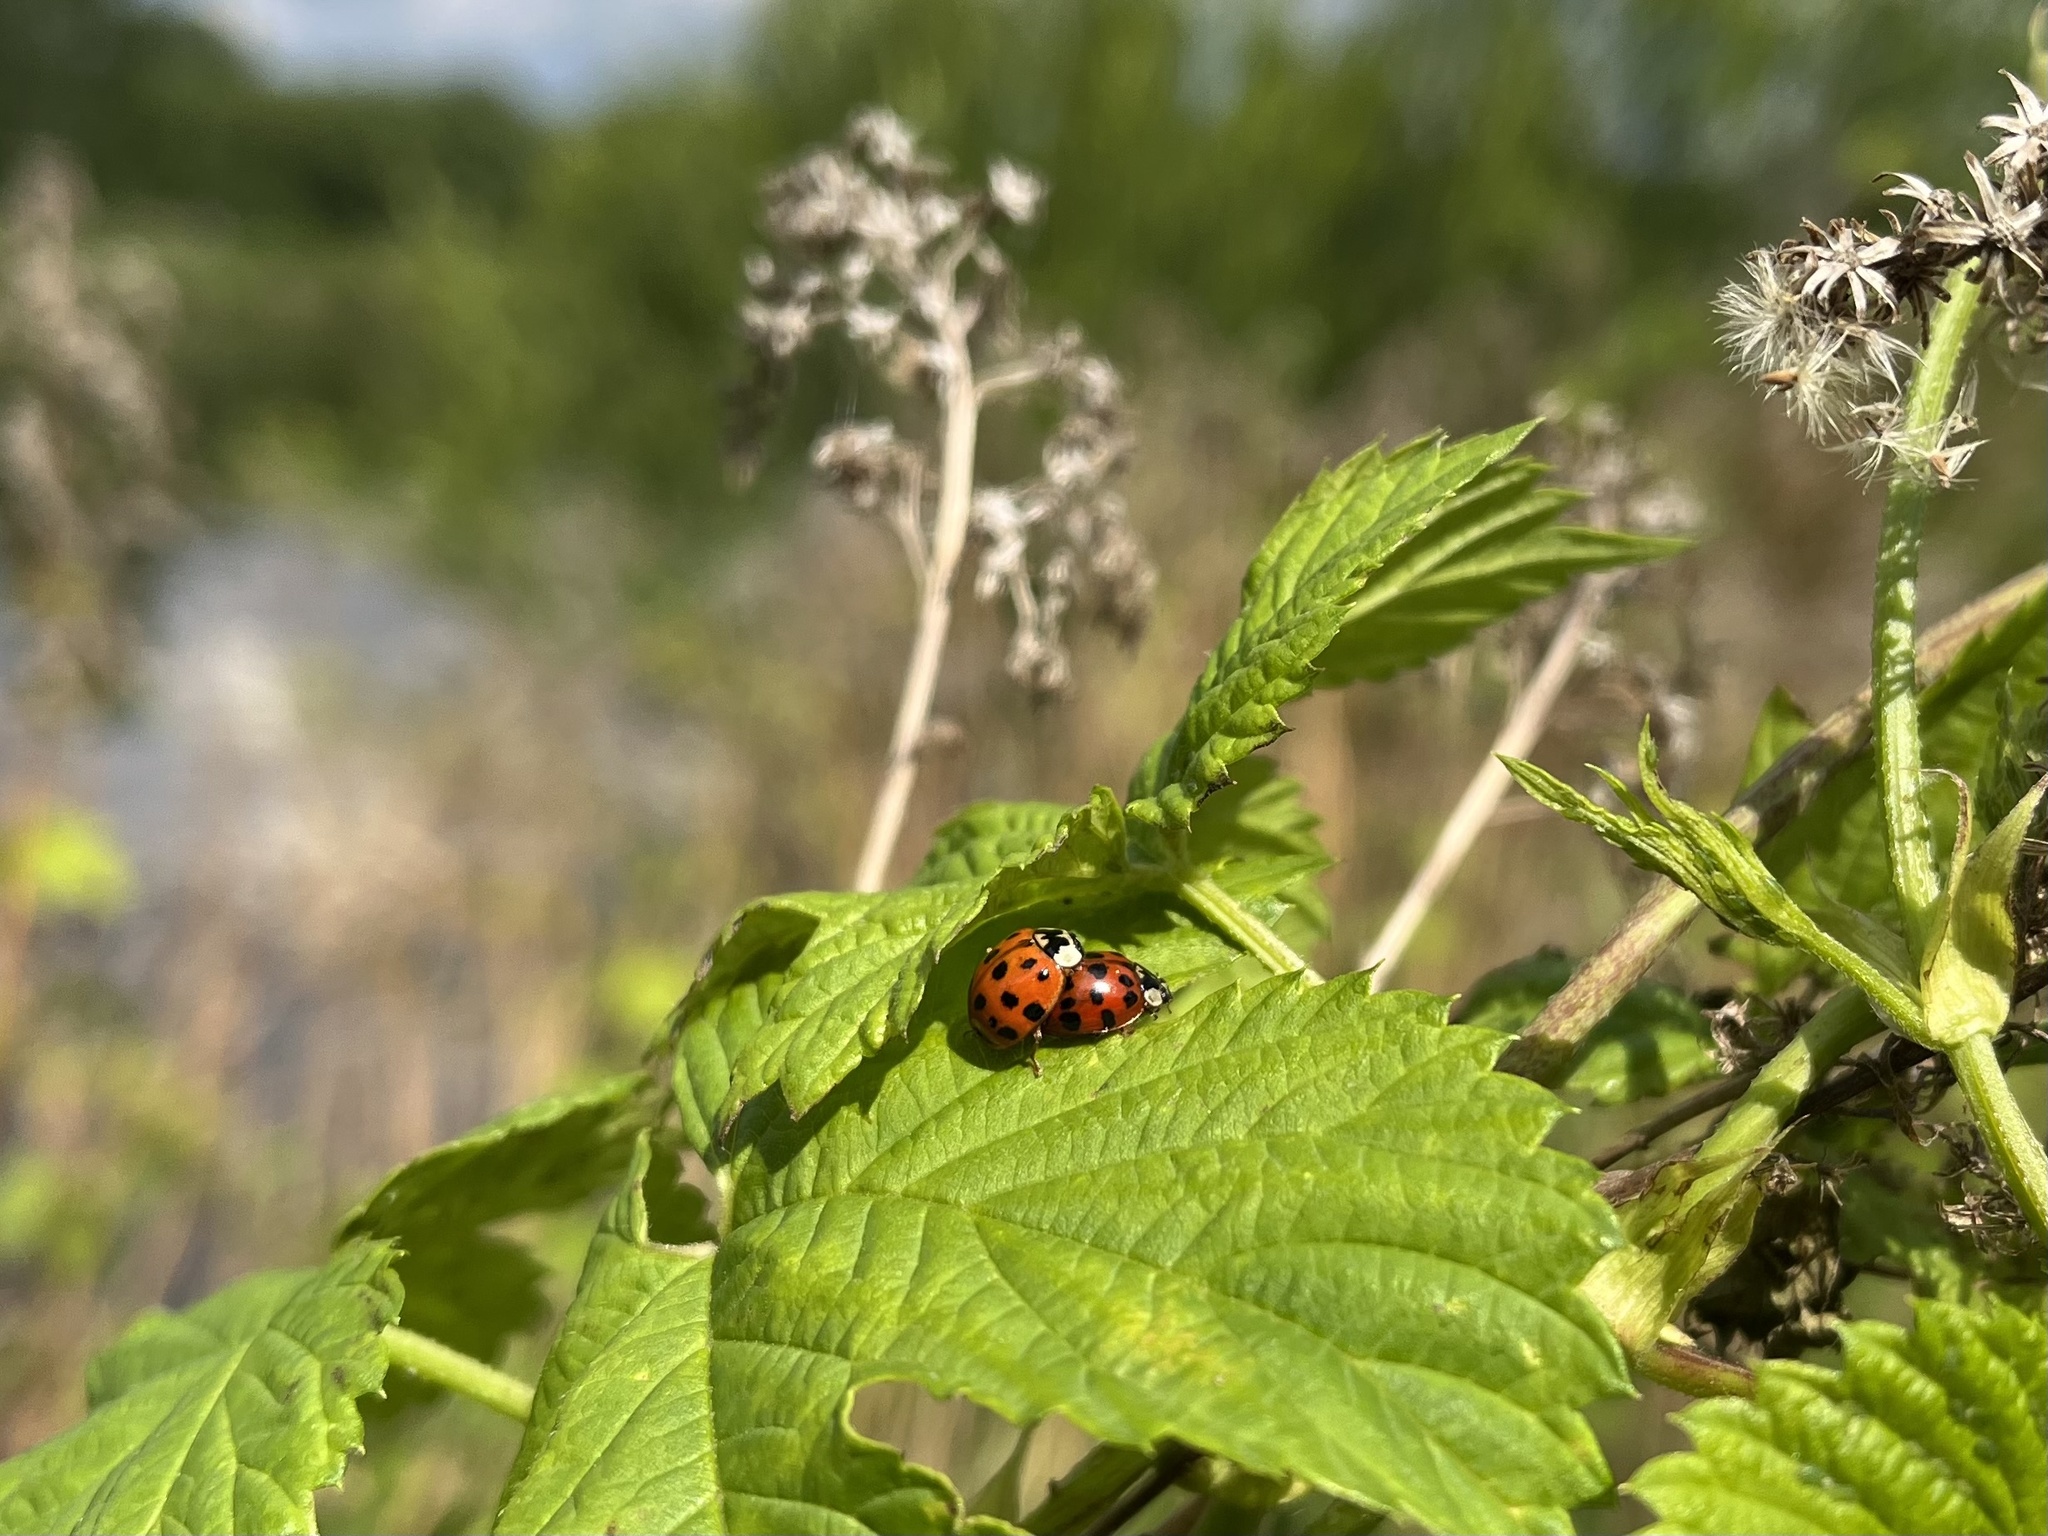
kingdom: Animalia
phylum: Arthropoda
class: Insecta
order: Coleoptera
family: Coccinellidae
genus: Harmonia
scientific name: Harmonia axyridis
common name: Harlequin ladybird
